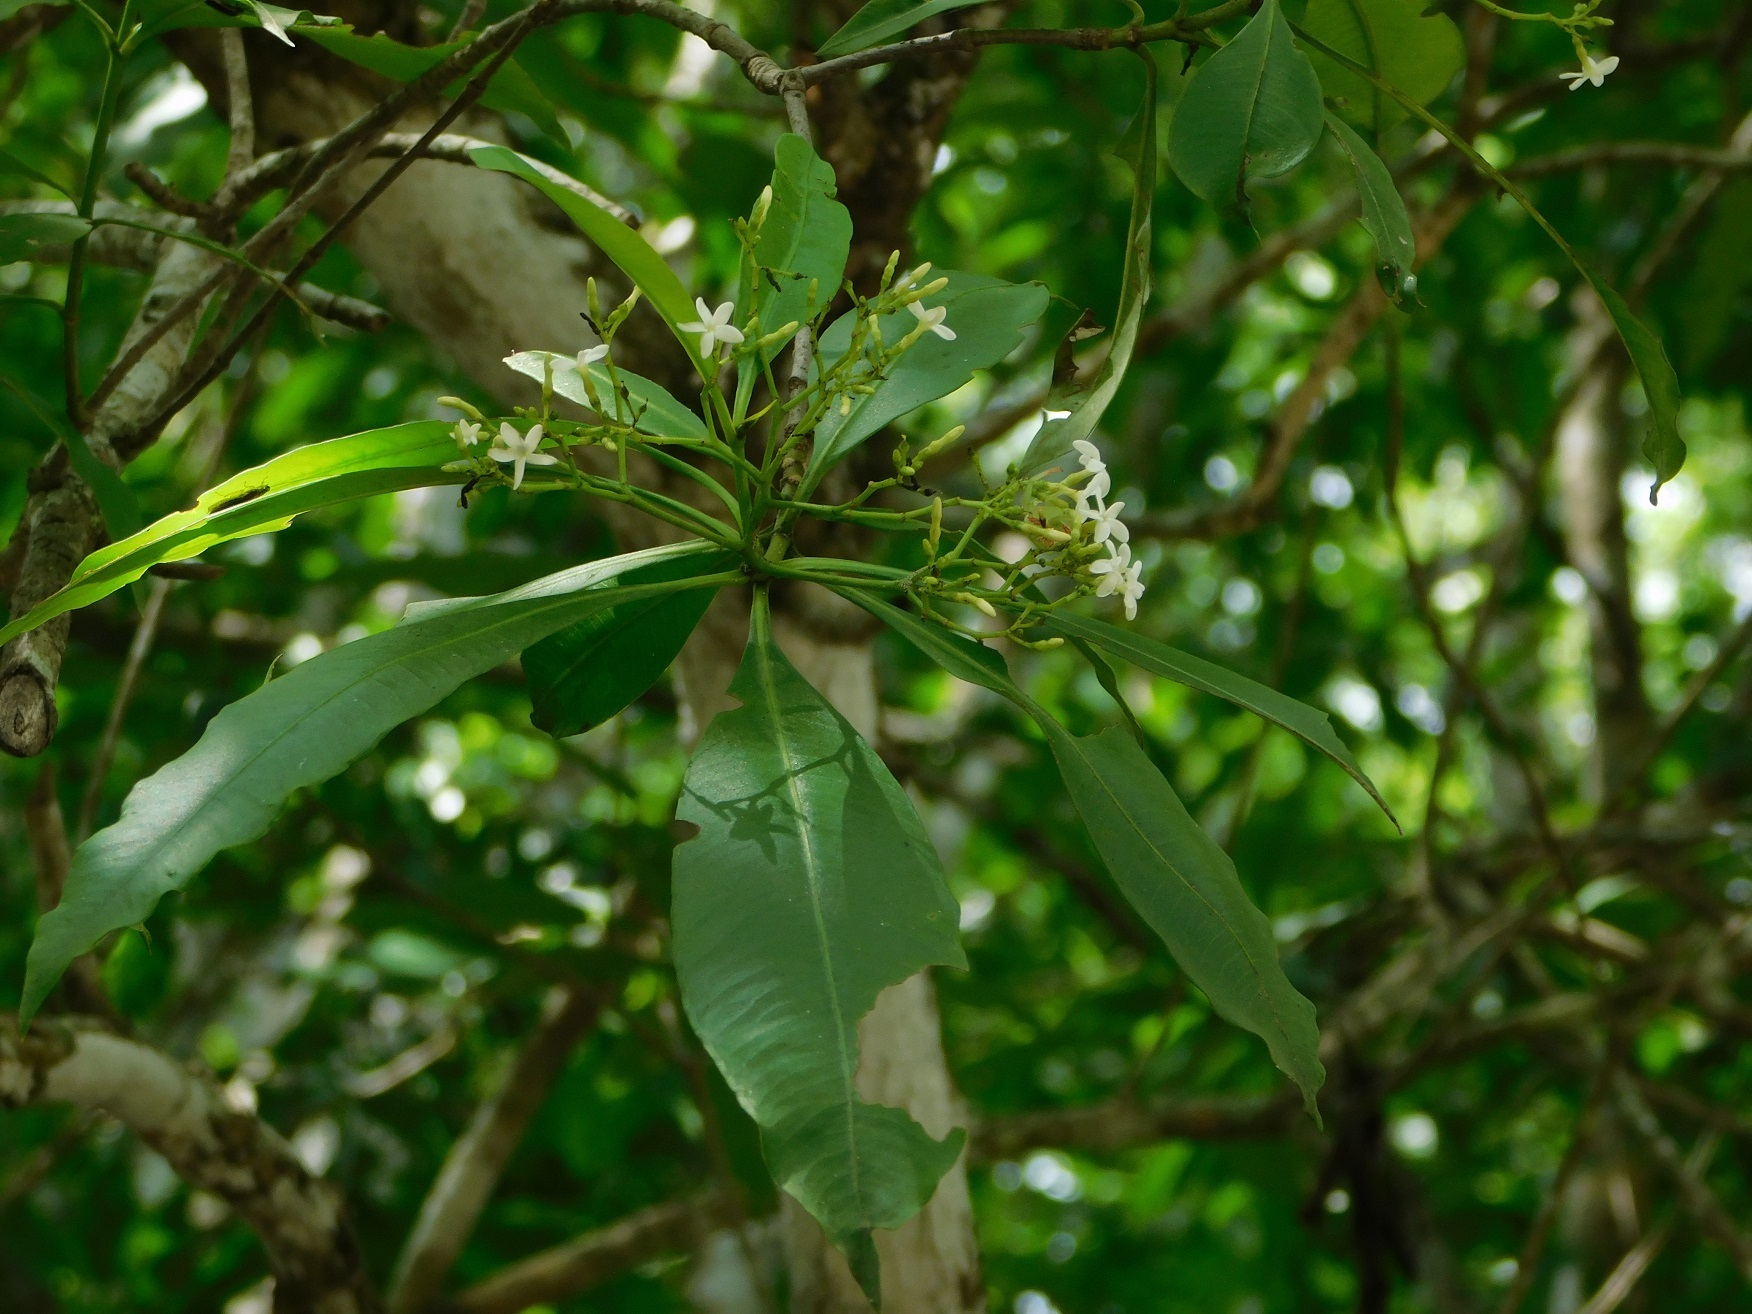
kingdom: Plantae
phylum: Tracheophyta
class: Magnoliopsida
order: Gentianales
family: Apocynaceae
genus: Tonduzia
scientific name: Tonduzia longifolia
